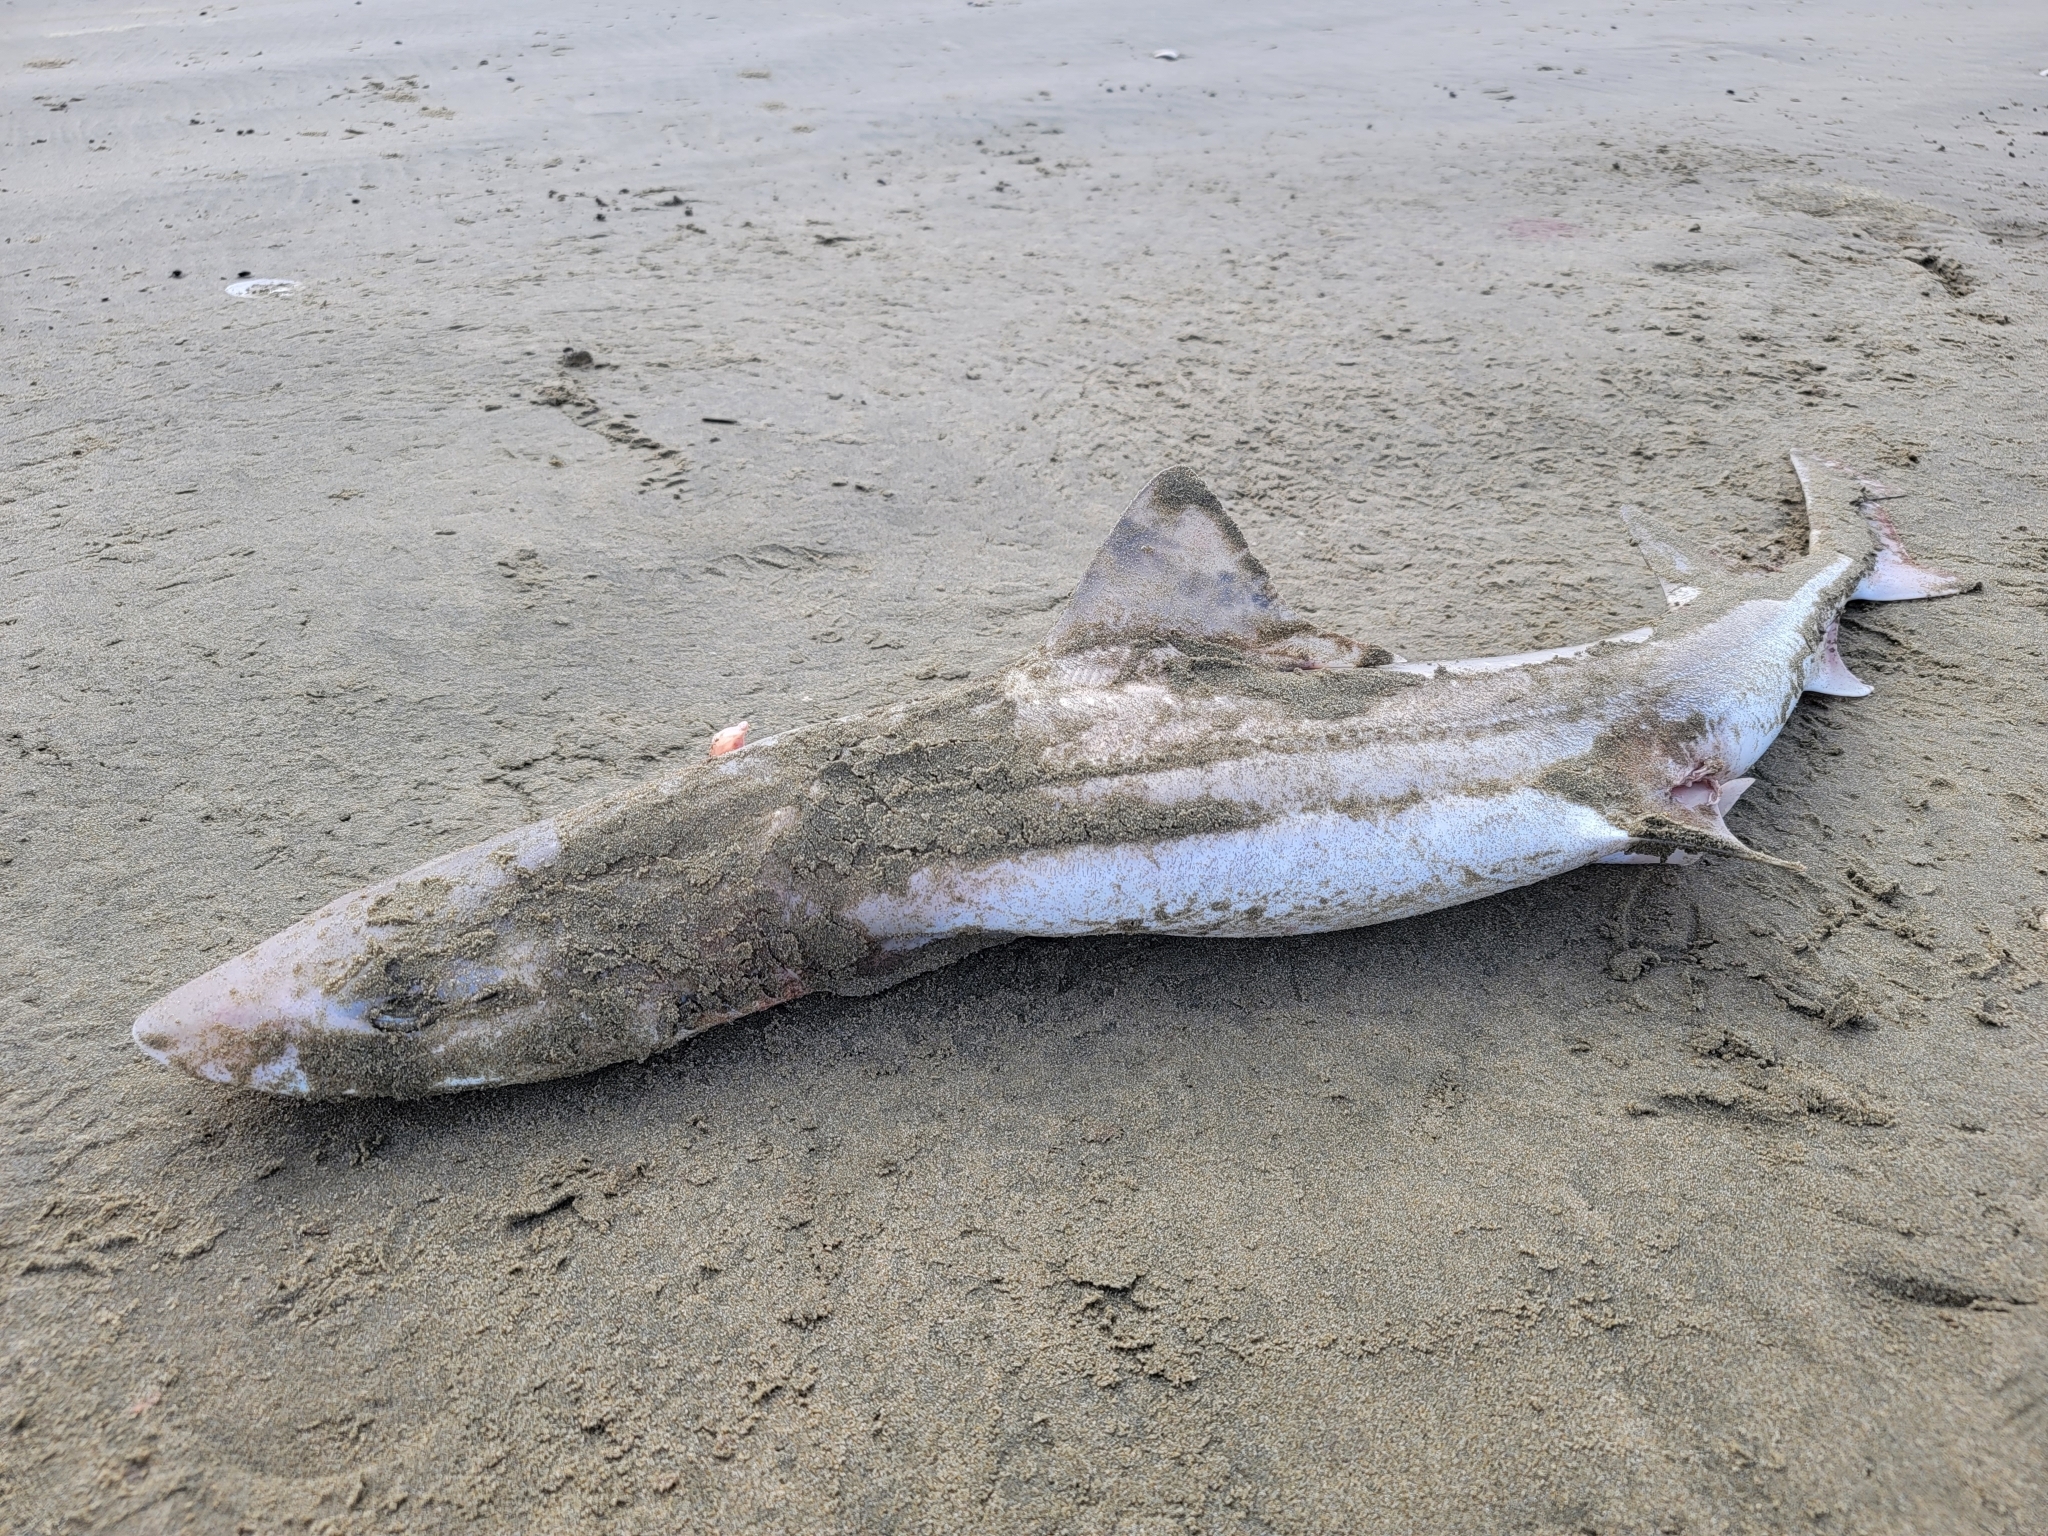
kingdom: Animalia
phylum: Chordata
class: Elasmobranchii
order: Carcharhiniformes
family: Triakidae
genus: Mustelus
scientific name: Mustelus lenticulatus
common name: Gummy shark
